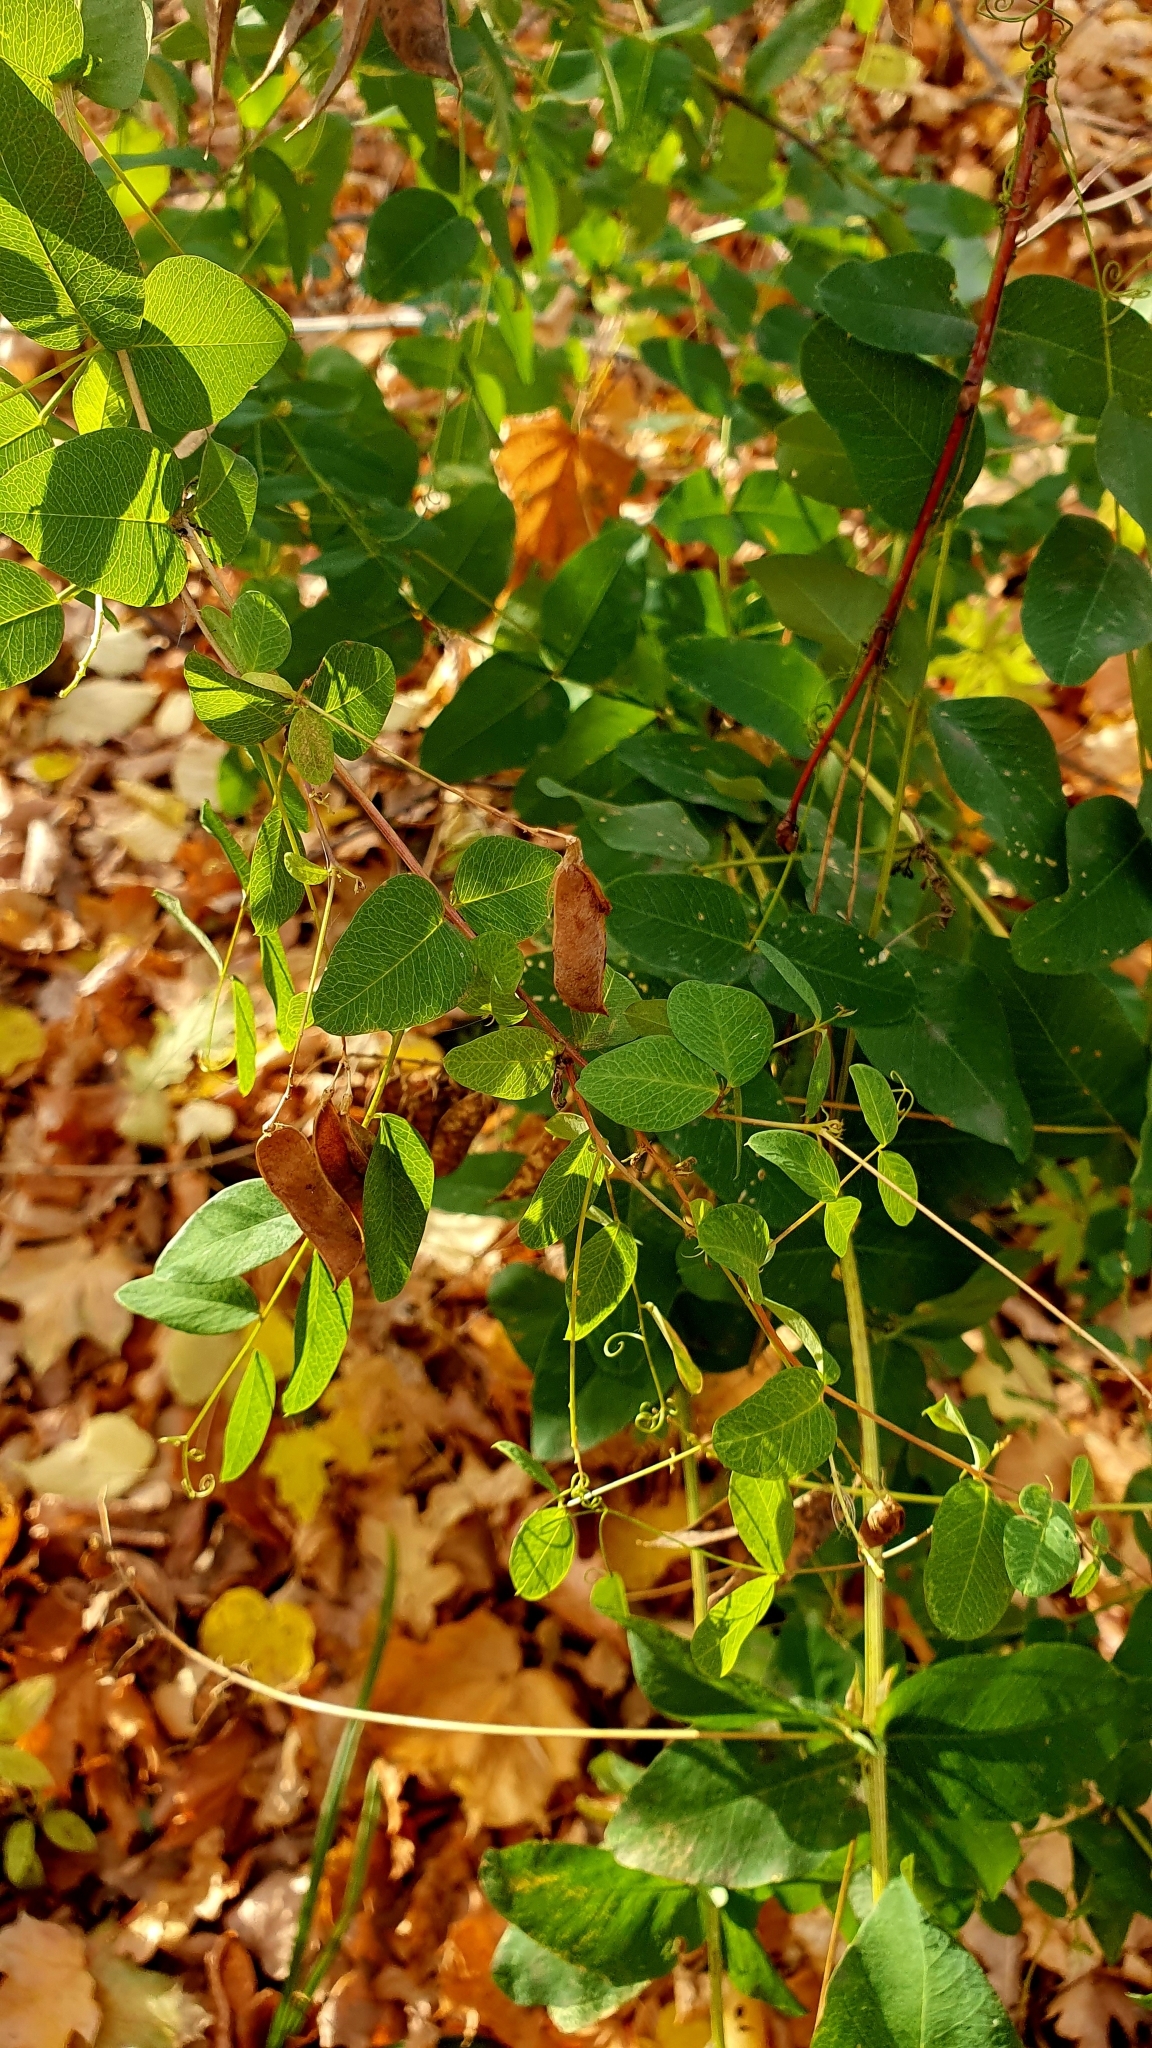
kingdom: Plantae
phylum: Tracheophyta
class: Magnoliopsida
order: Fabales
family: Fabaceae
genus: Vicia
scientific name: Vicia pisiformis
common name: Pale-flower vetch
